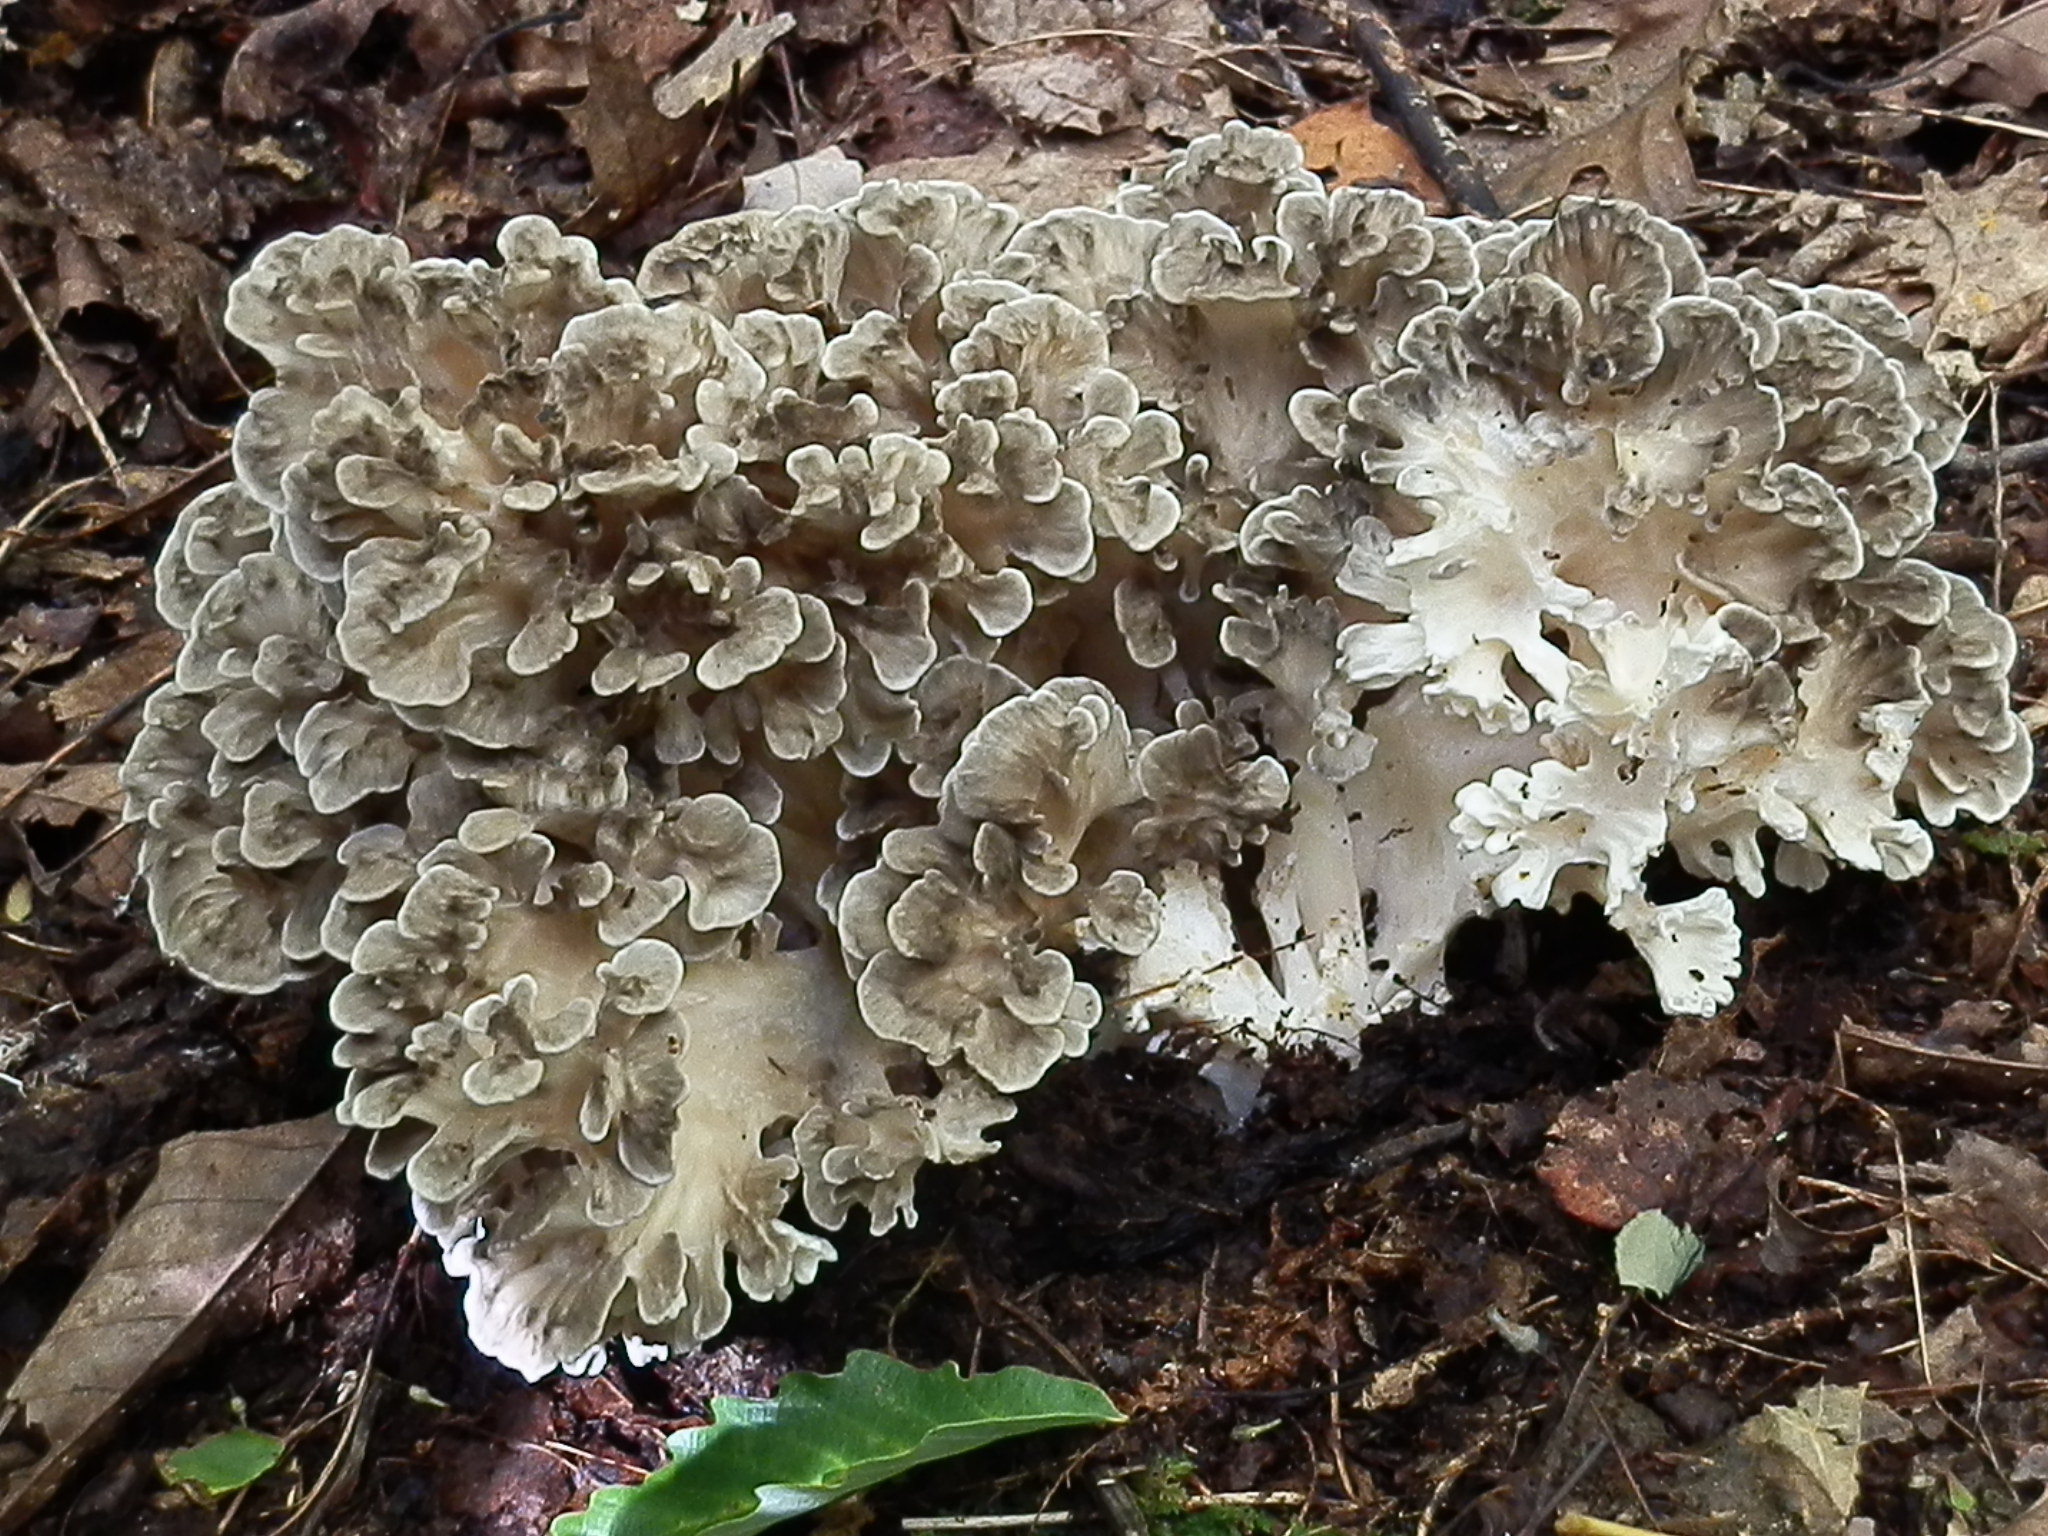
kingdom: Fungi
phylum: Basidiomycota
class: Agaricomycetes
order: Polyporales
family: Grifolaceae
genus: Grifola
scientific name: Grifola frondosa
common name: Hen of the woods
